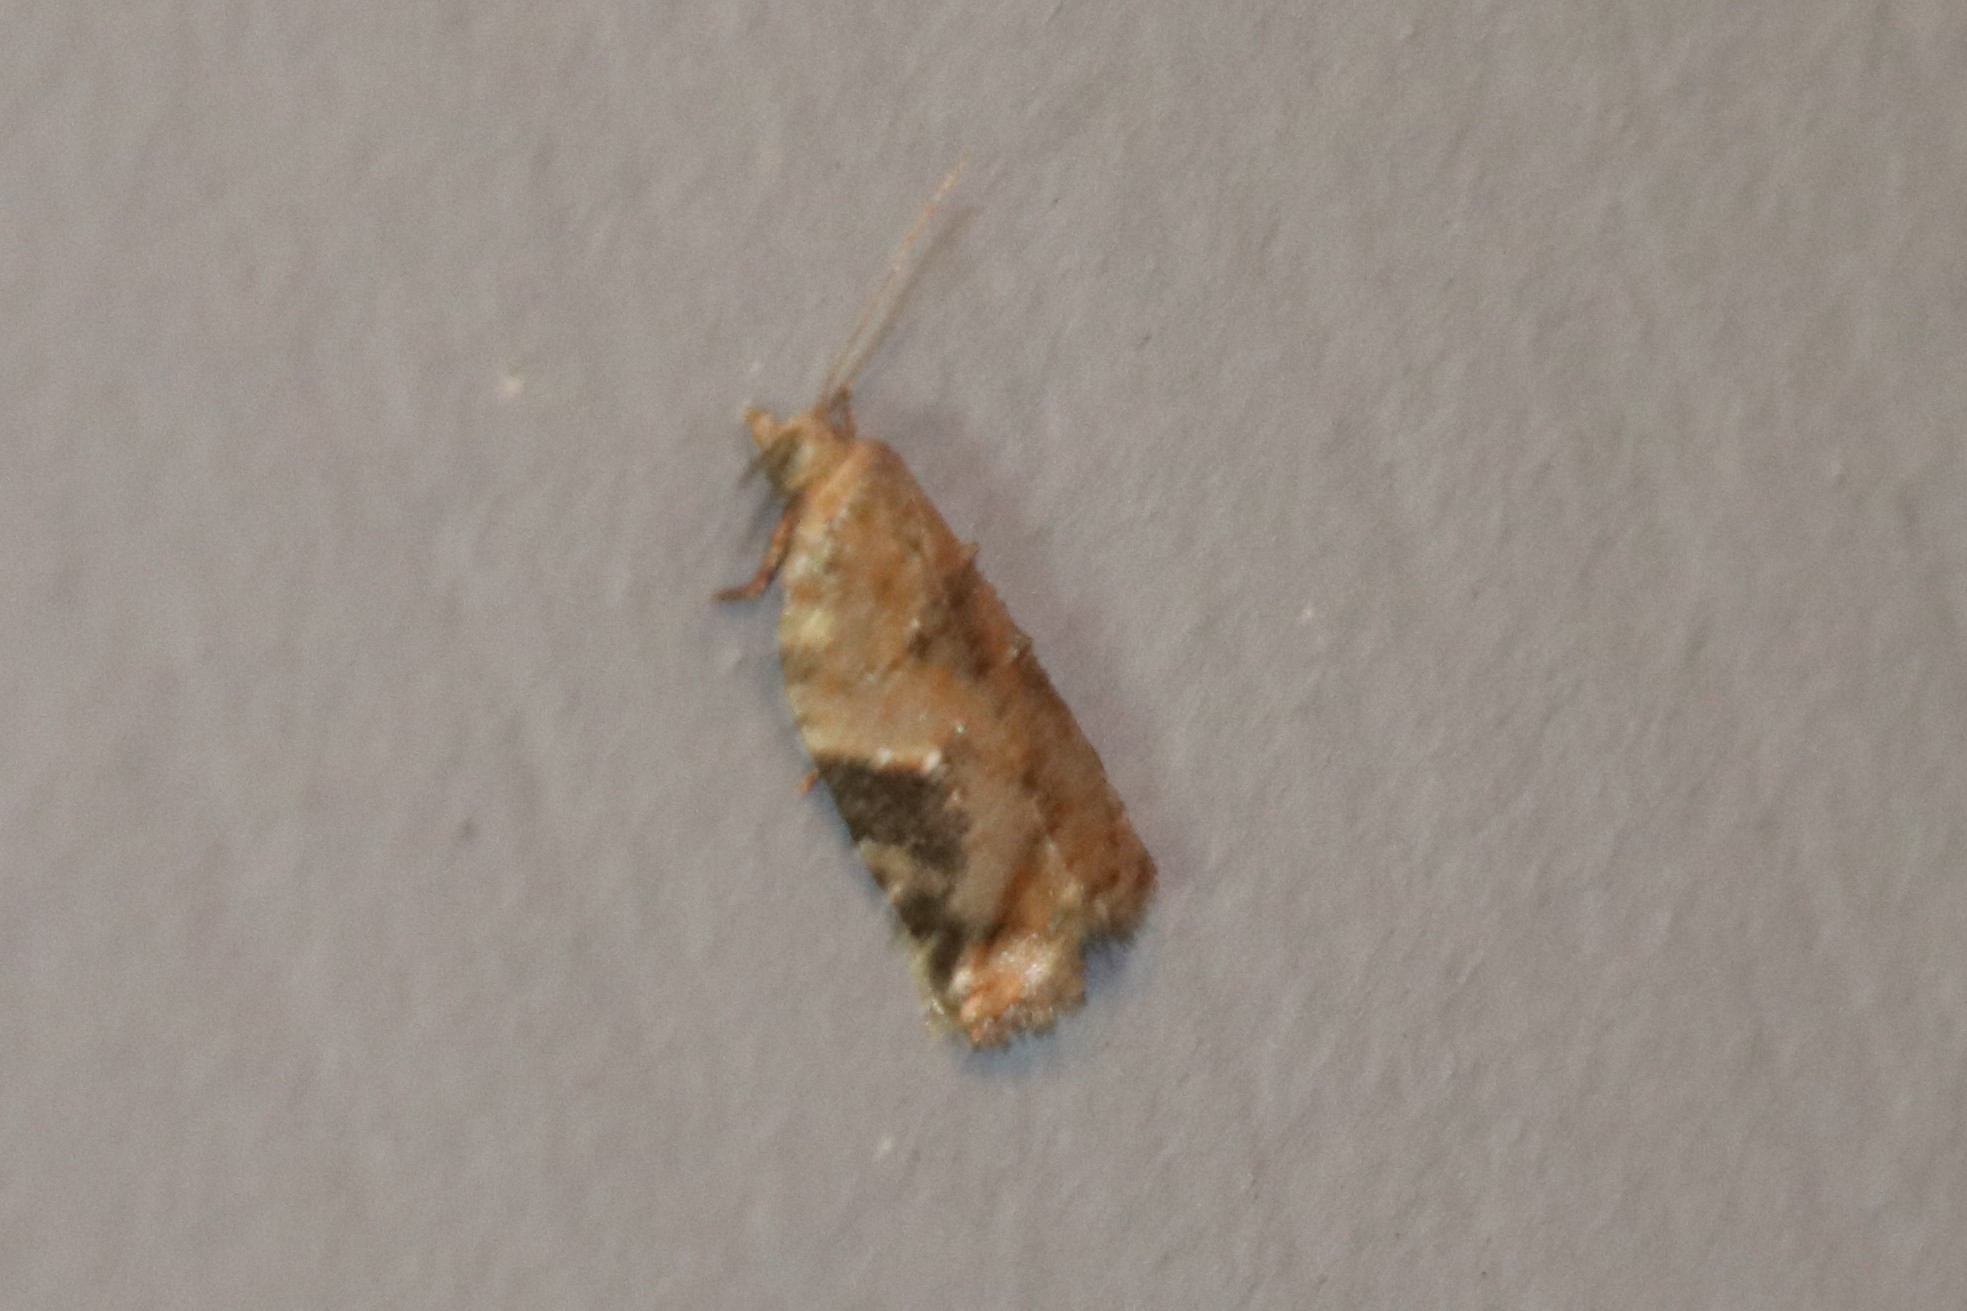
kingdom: Animalia
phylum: Arthropoda
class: Insecta
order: Lepidoptera
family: Tortricidae
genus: Argyrotaenia
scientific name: Argyrotaenia mariana
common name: Gray-banded leafroller moth
